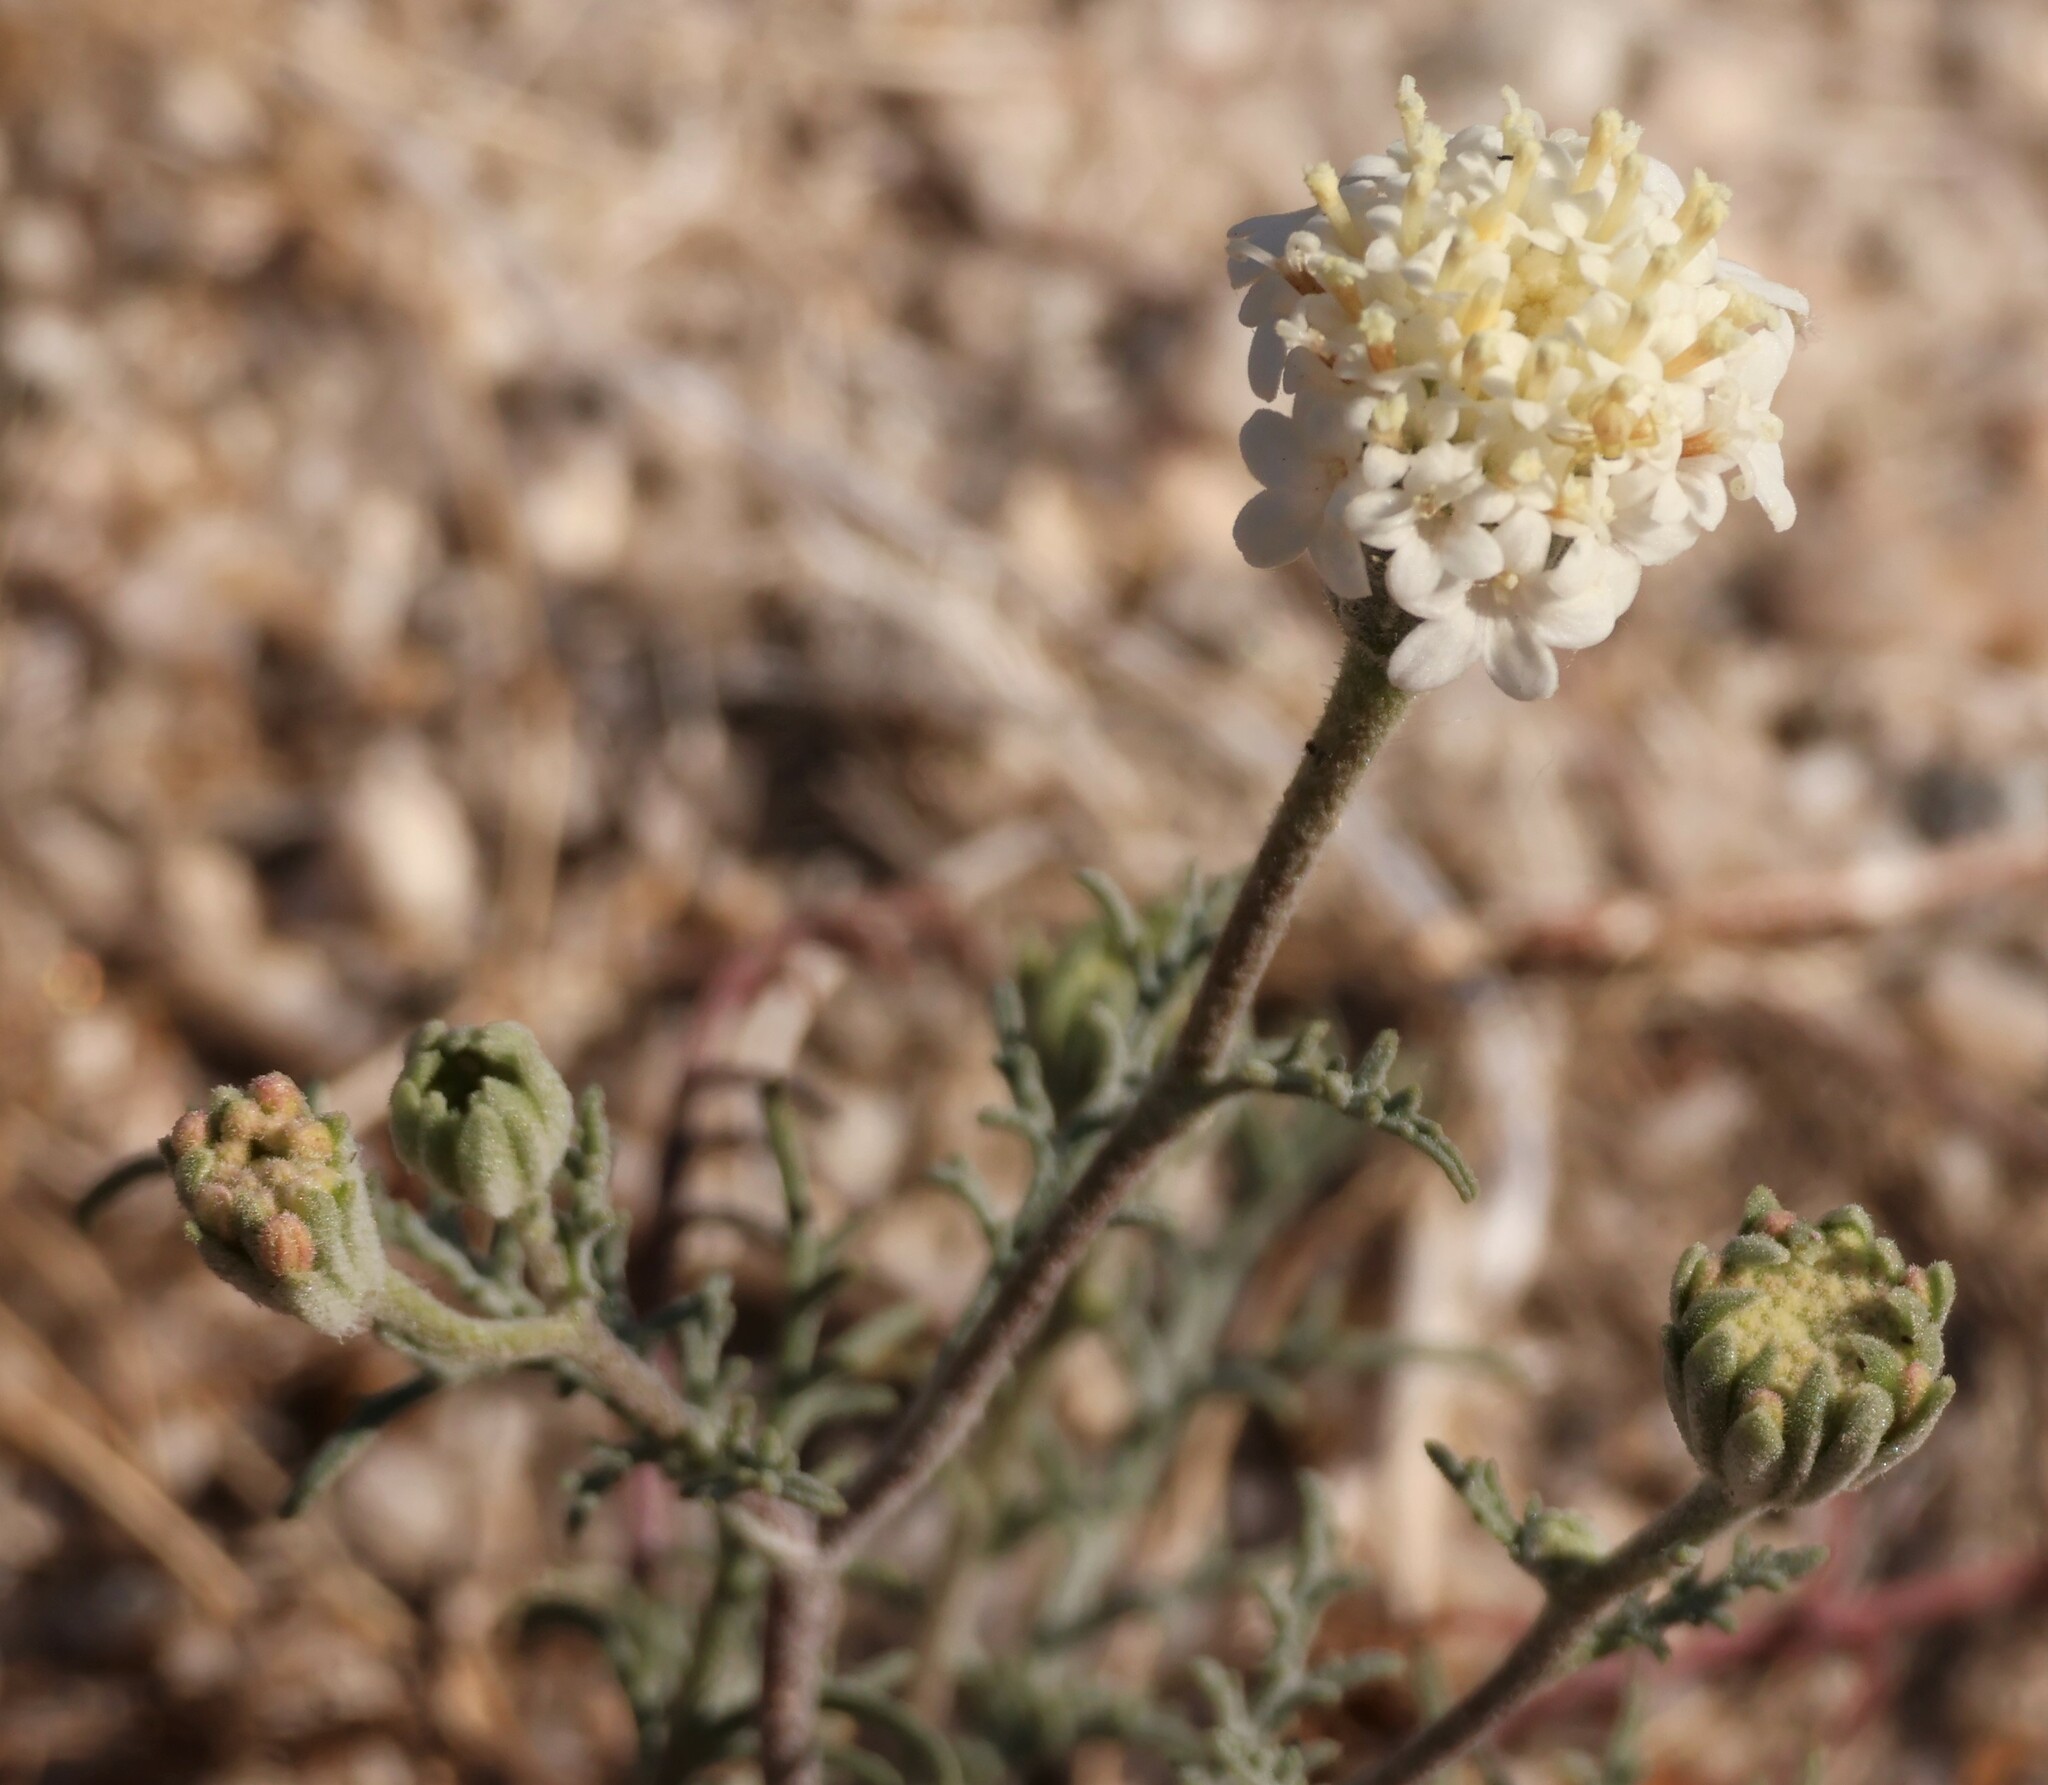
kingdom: Plantae
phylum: Tracheophyta
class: Magnoliopsida
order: Asterales
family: Asteraceae
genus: Chaenactis
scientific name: Chaenactis stevioides
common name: Desert pincushion
